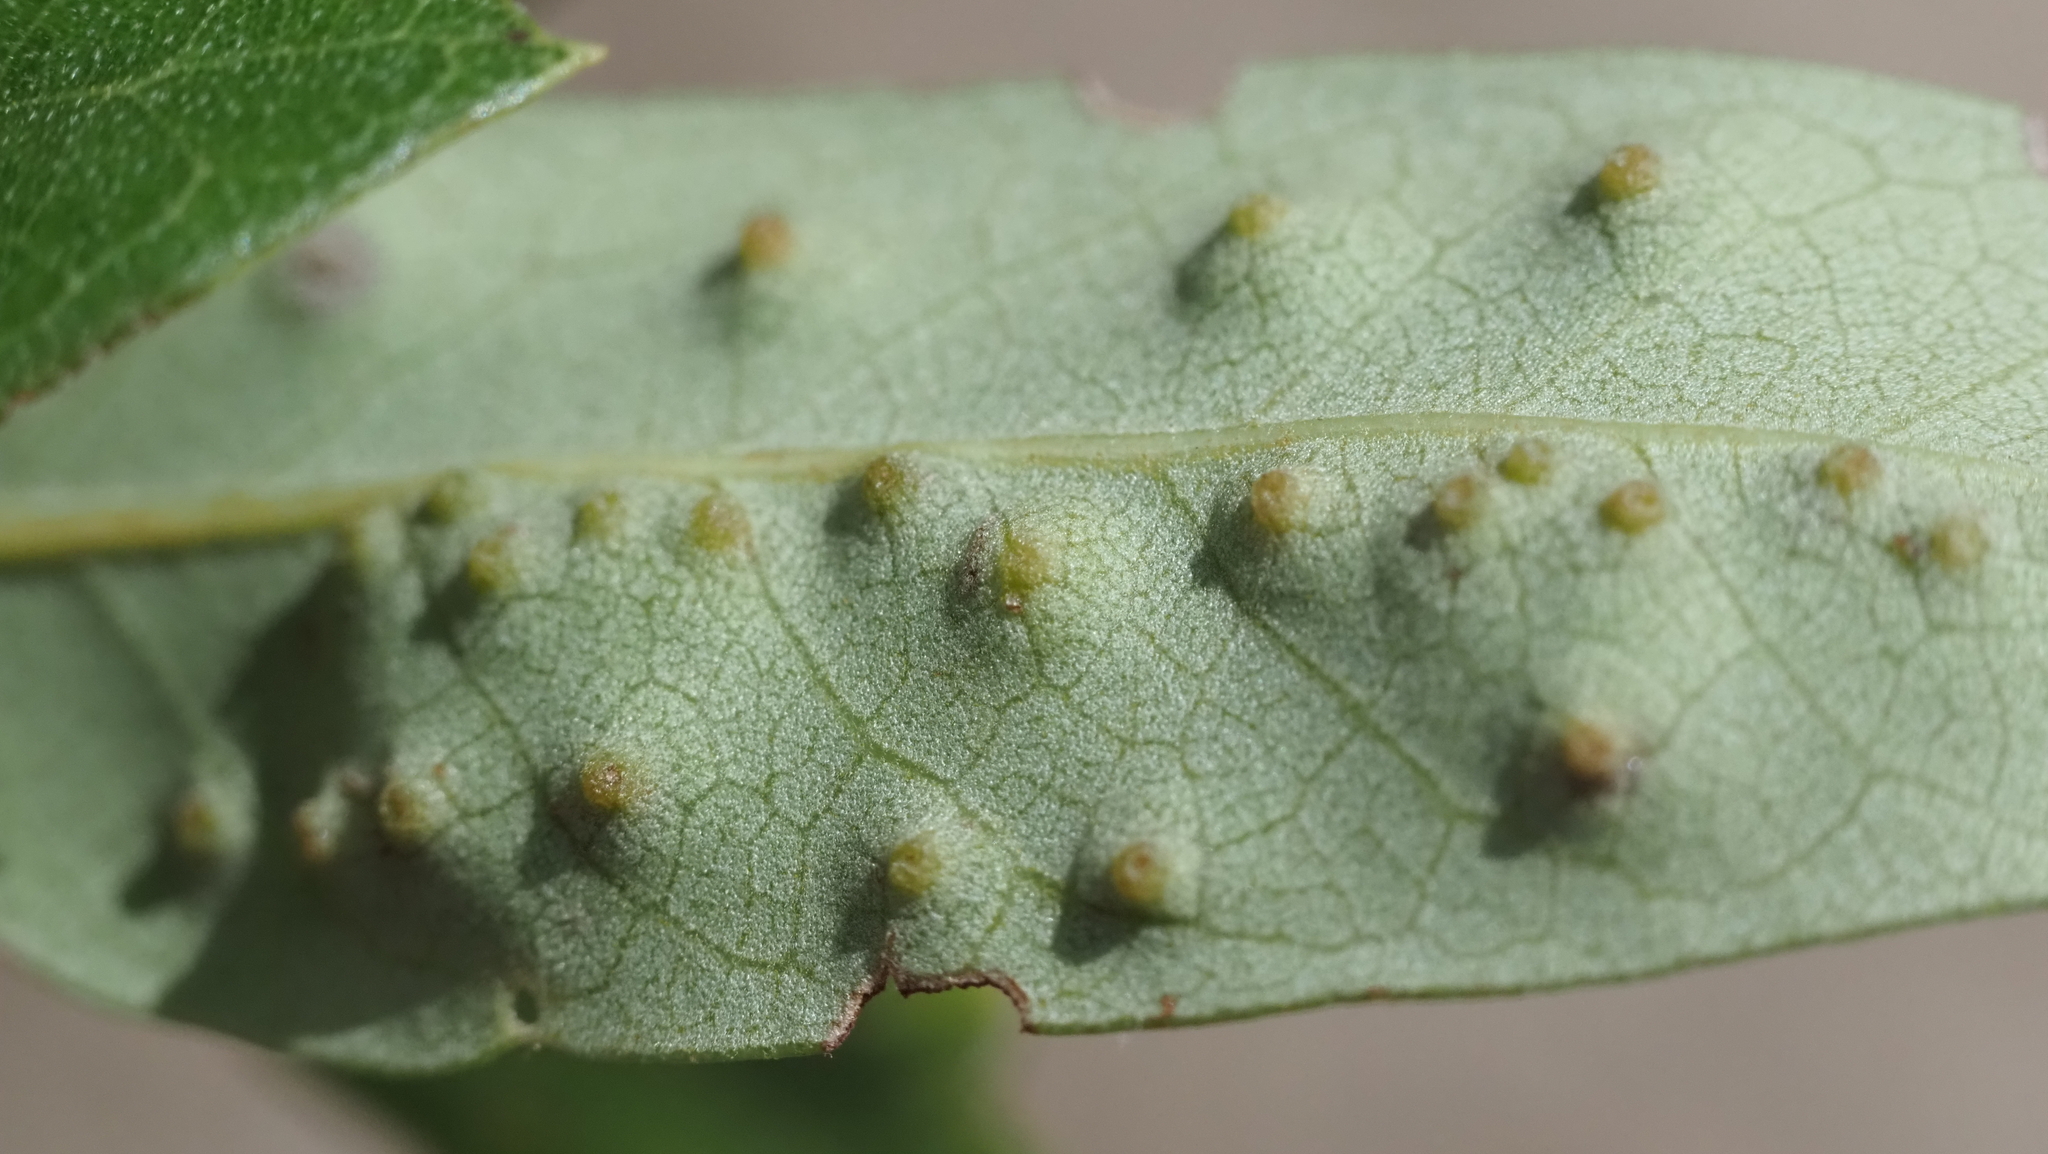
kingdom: Animalia
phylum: Arthropoda
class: Insecta
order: Hymenoptera
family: Cynipidae
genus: Neuroterus
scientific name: Neuroterus
